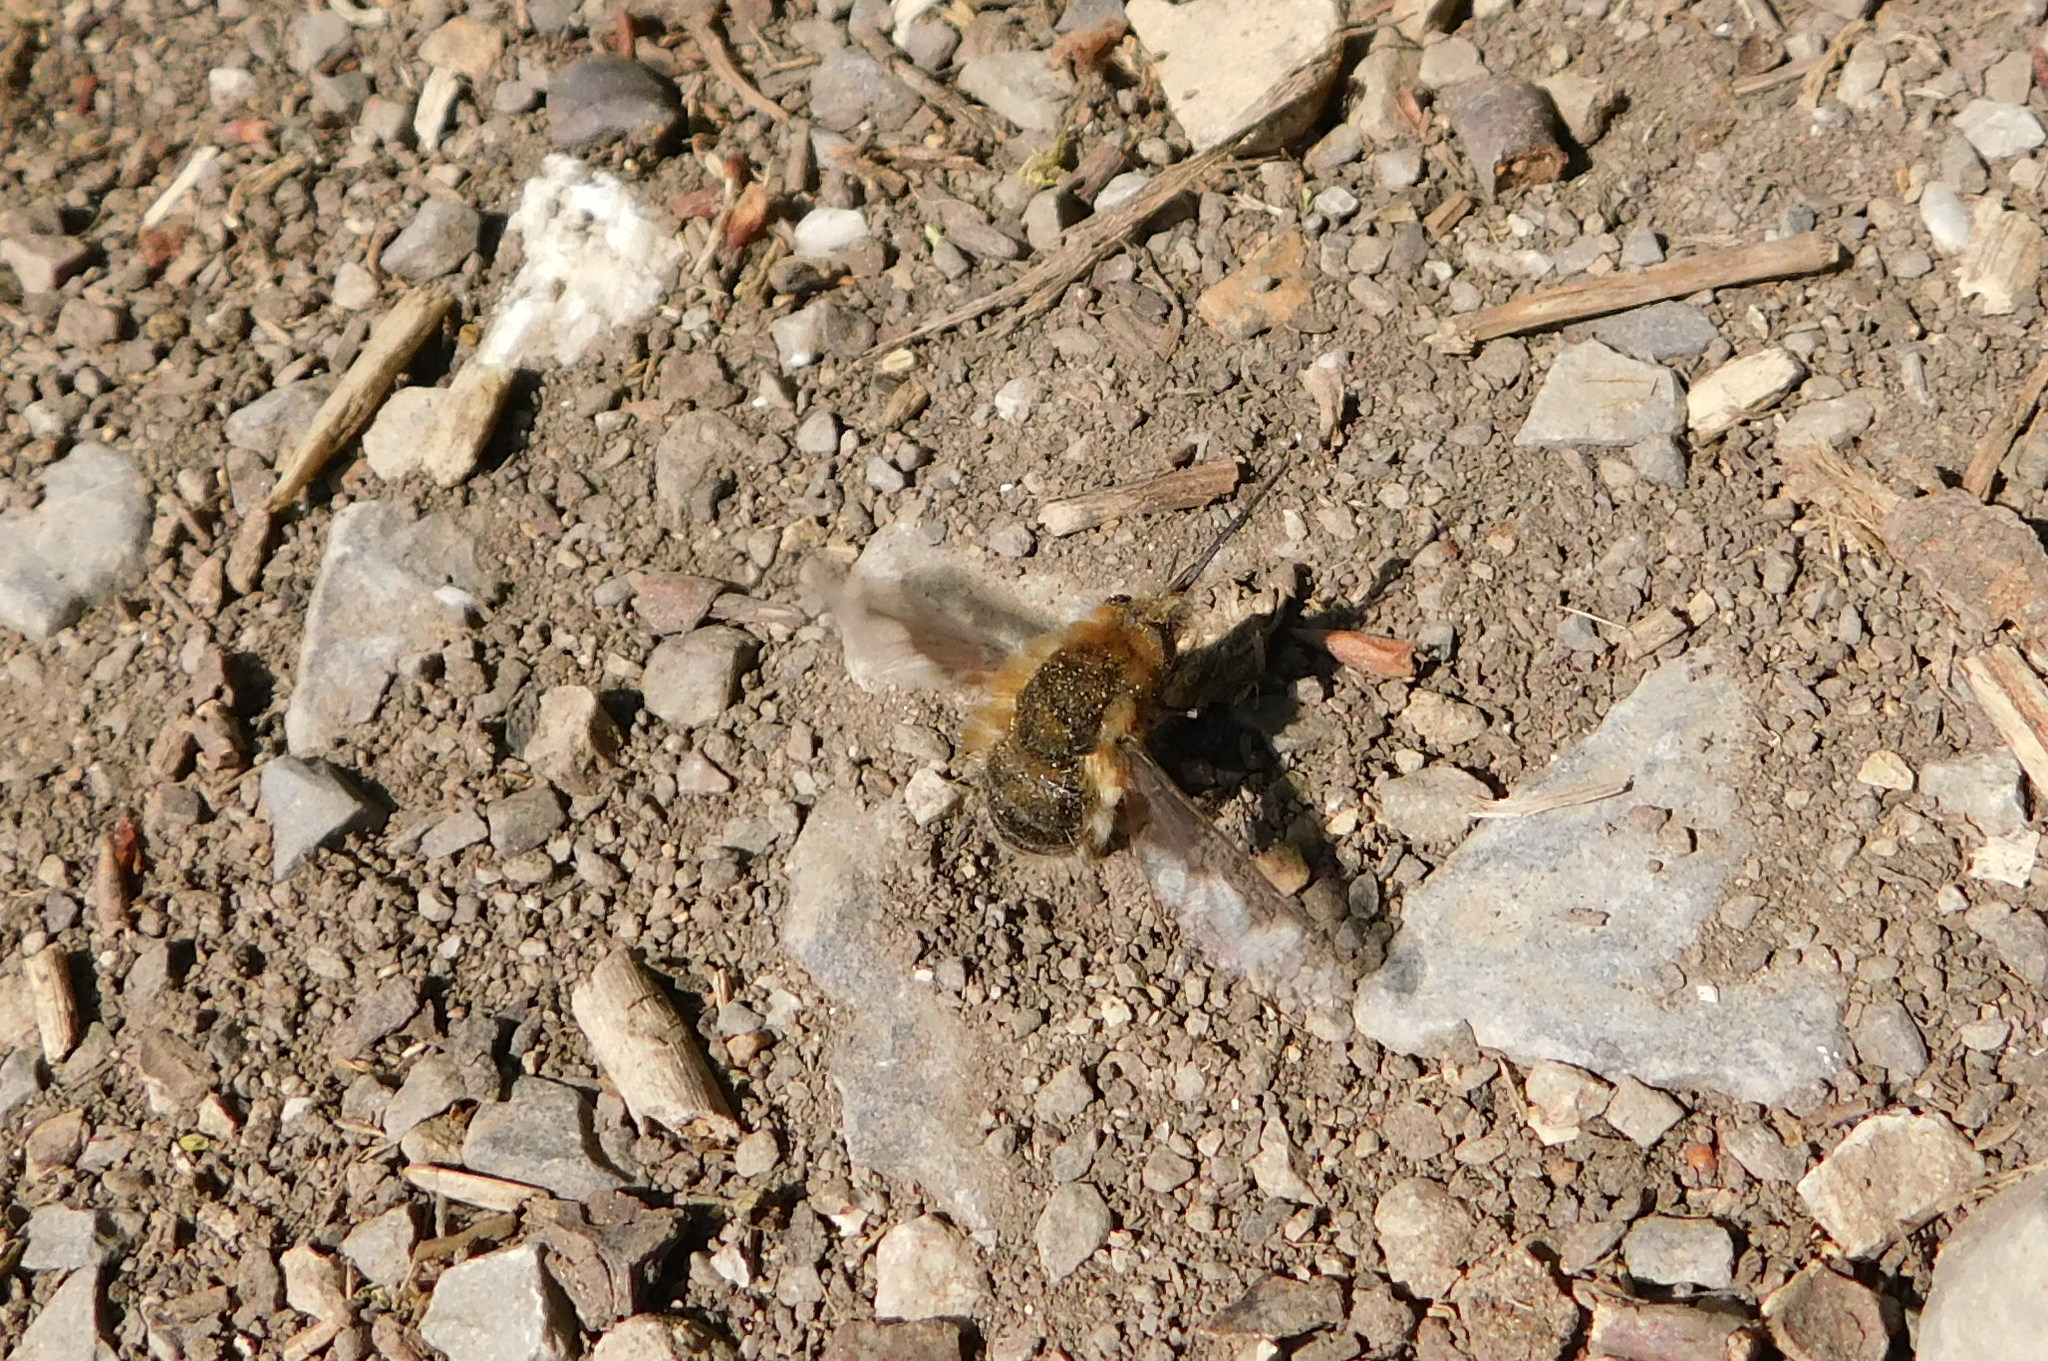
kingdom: Animalia
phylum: Arthropoda
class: Insecta
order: Diptera
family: Bombyliidae
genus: Bombylius
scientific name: Bombylius major
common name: Bee fly
